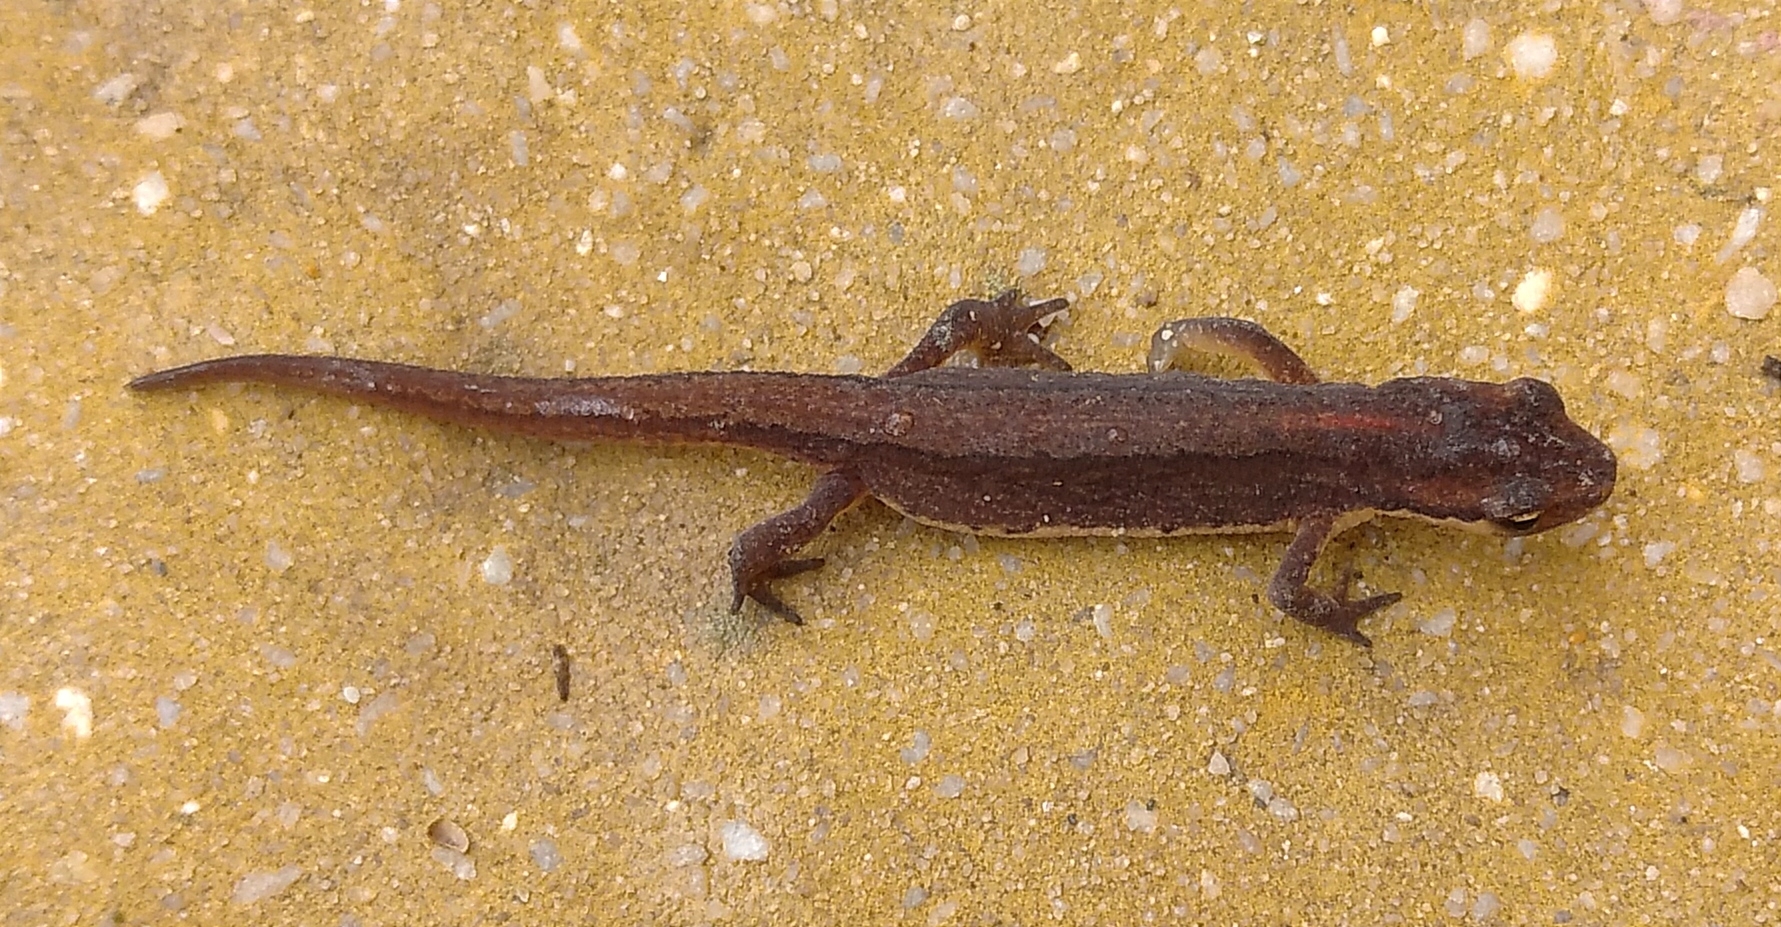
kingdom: Animalia
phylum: Chordata
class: Amphibia
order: Caudata
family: Salamandridae
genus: Lissotriton
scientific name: Lissotriton schmidtleri
